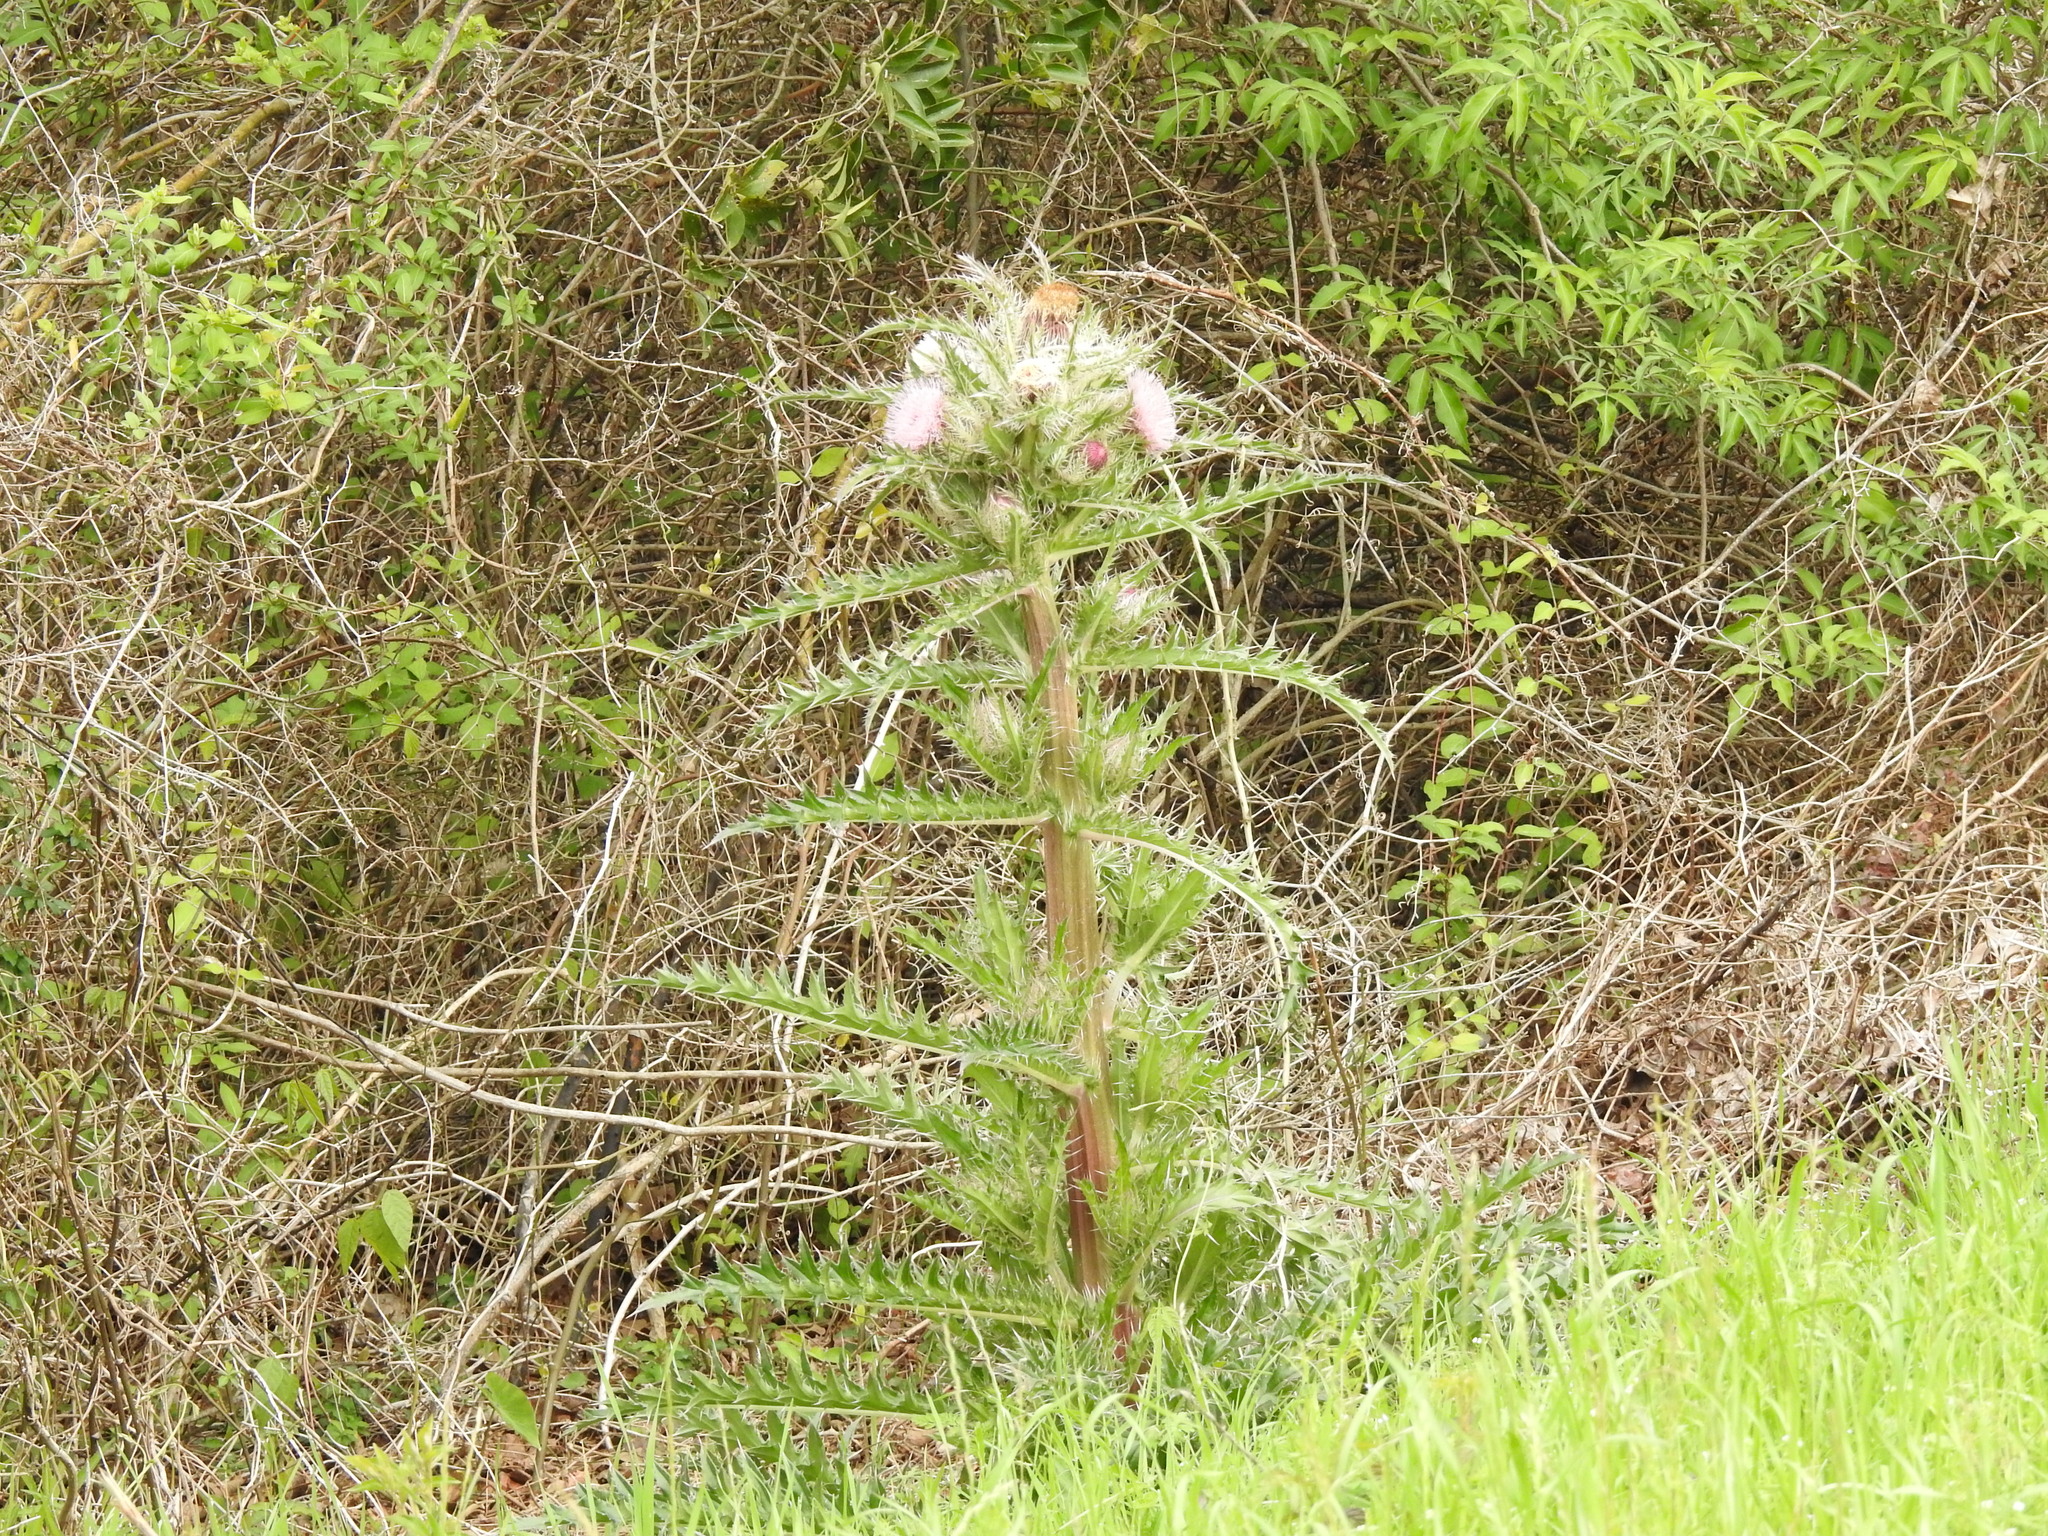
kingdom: Plantae
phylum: Tracheophyta
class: Magnoliopsida
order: Asterales
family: Asteraceae
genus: Cirsium
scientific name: Cirsium horridulum
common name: Bristly thistle
